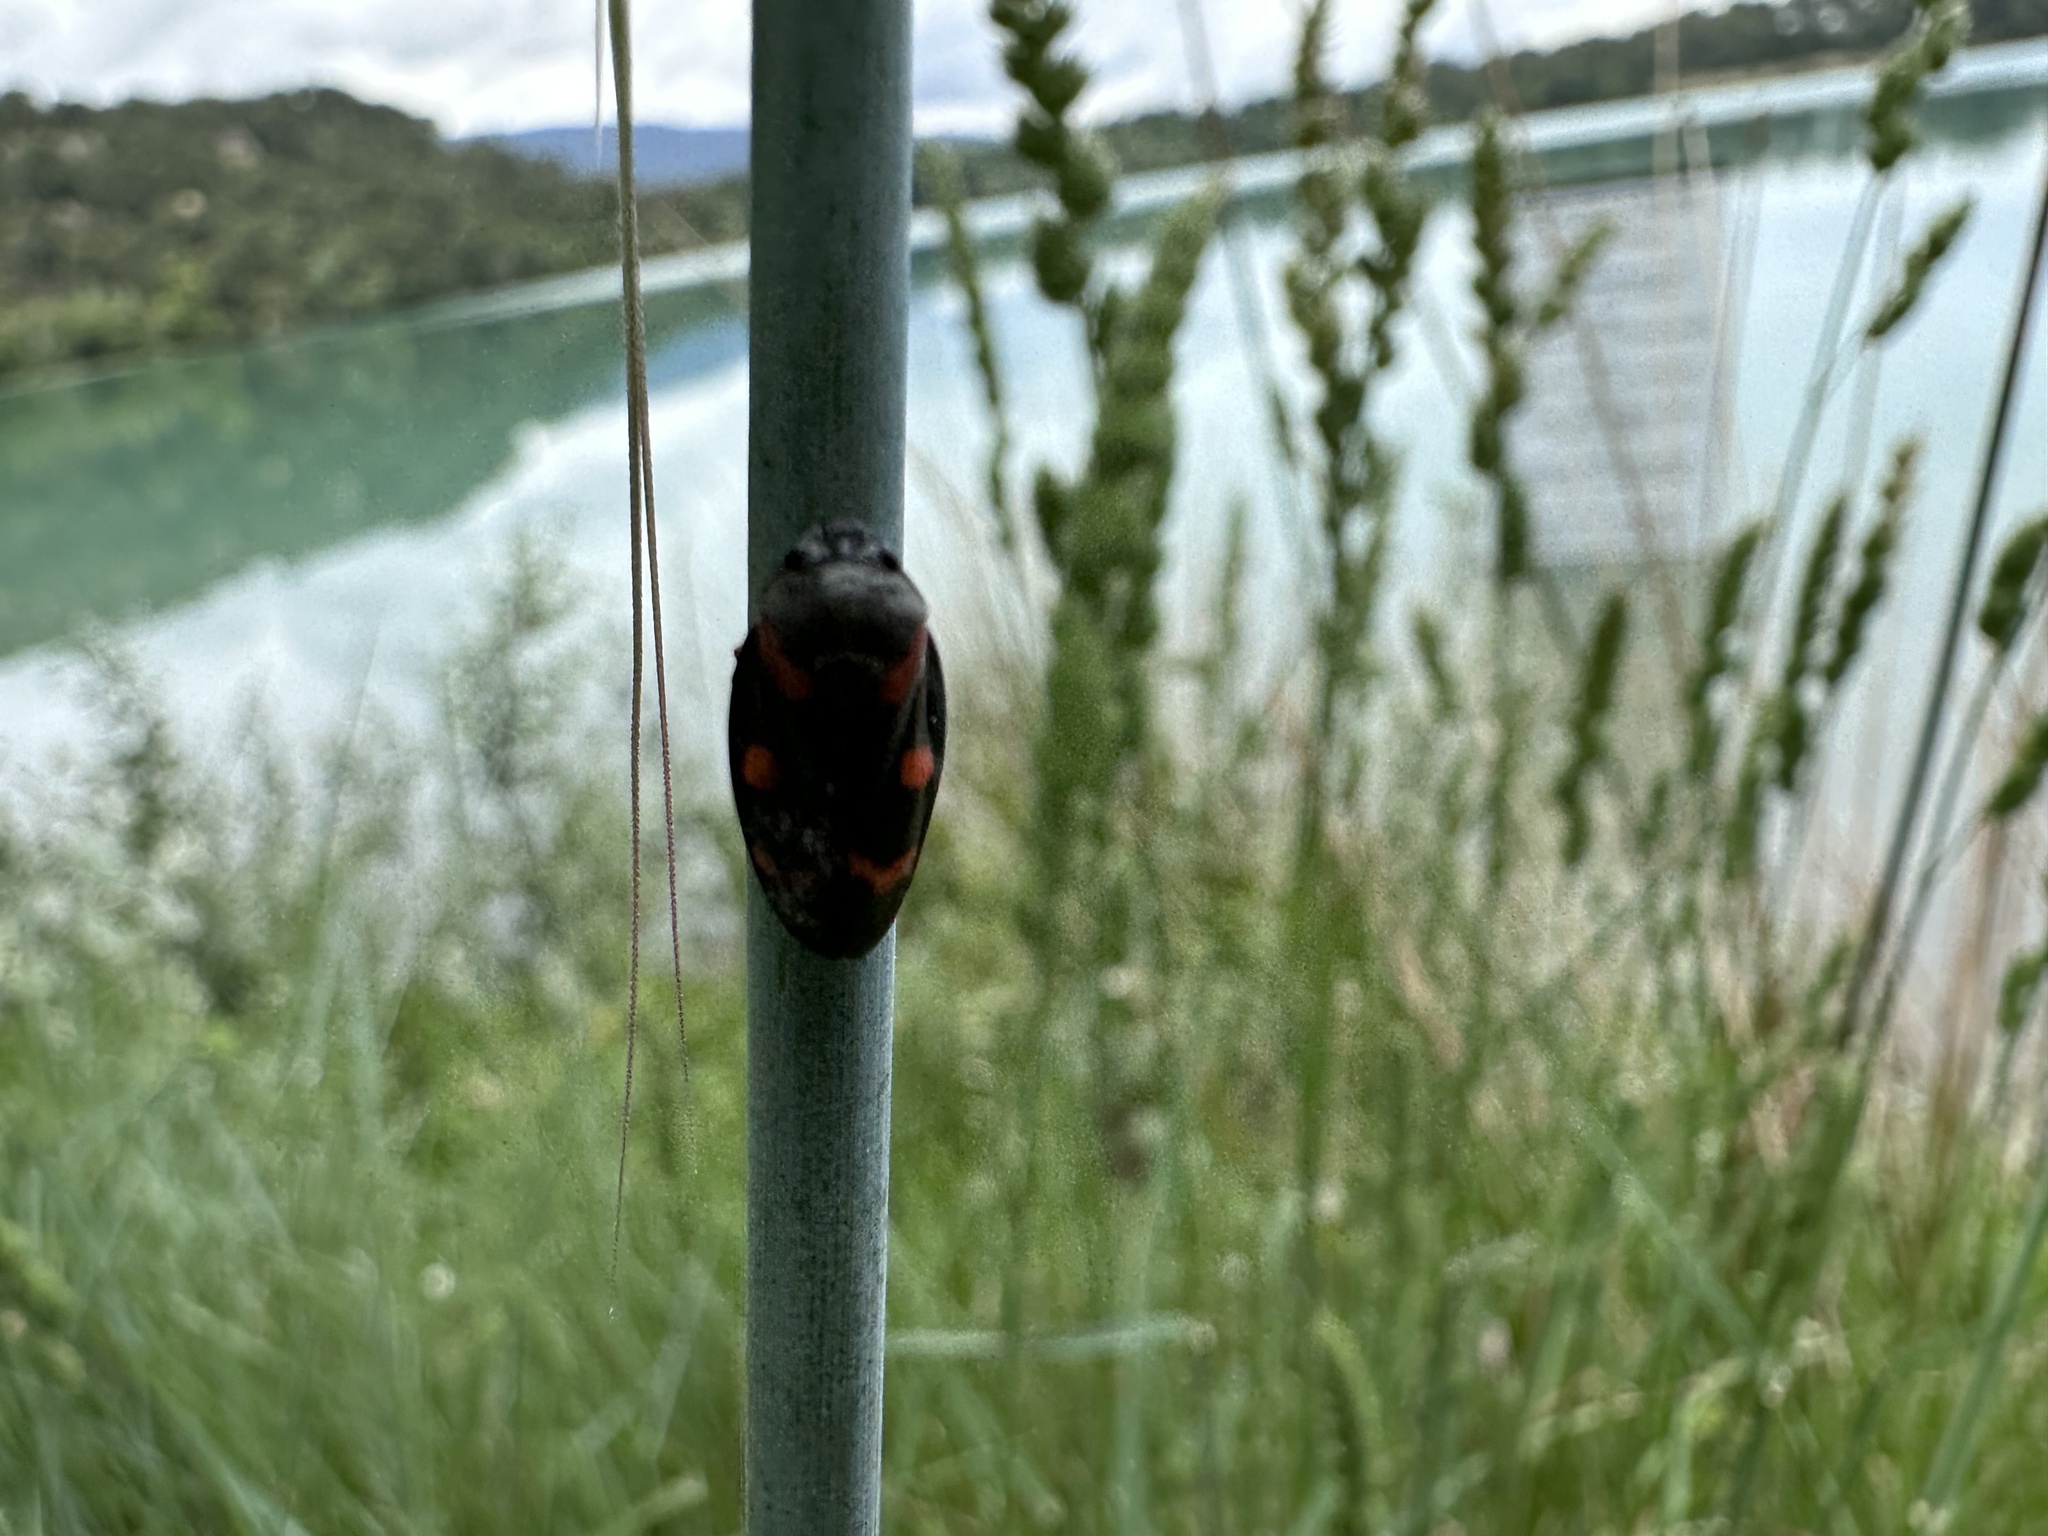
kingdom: Animalia
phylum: Arthropoda
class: Insecta
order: Hemiptera
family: Cercopidae
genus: Cercopis
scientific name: Cercopis intermedia
